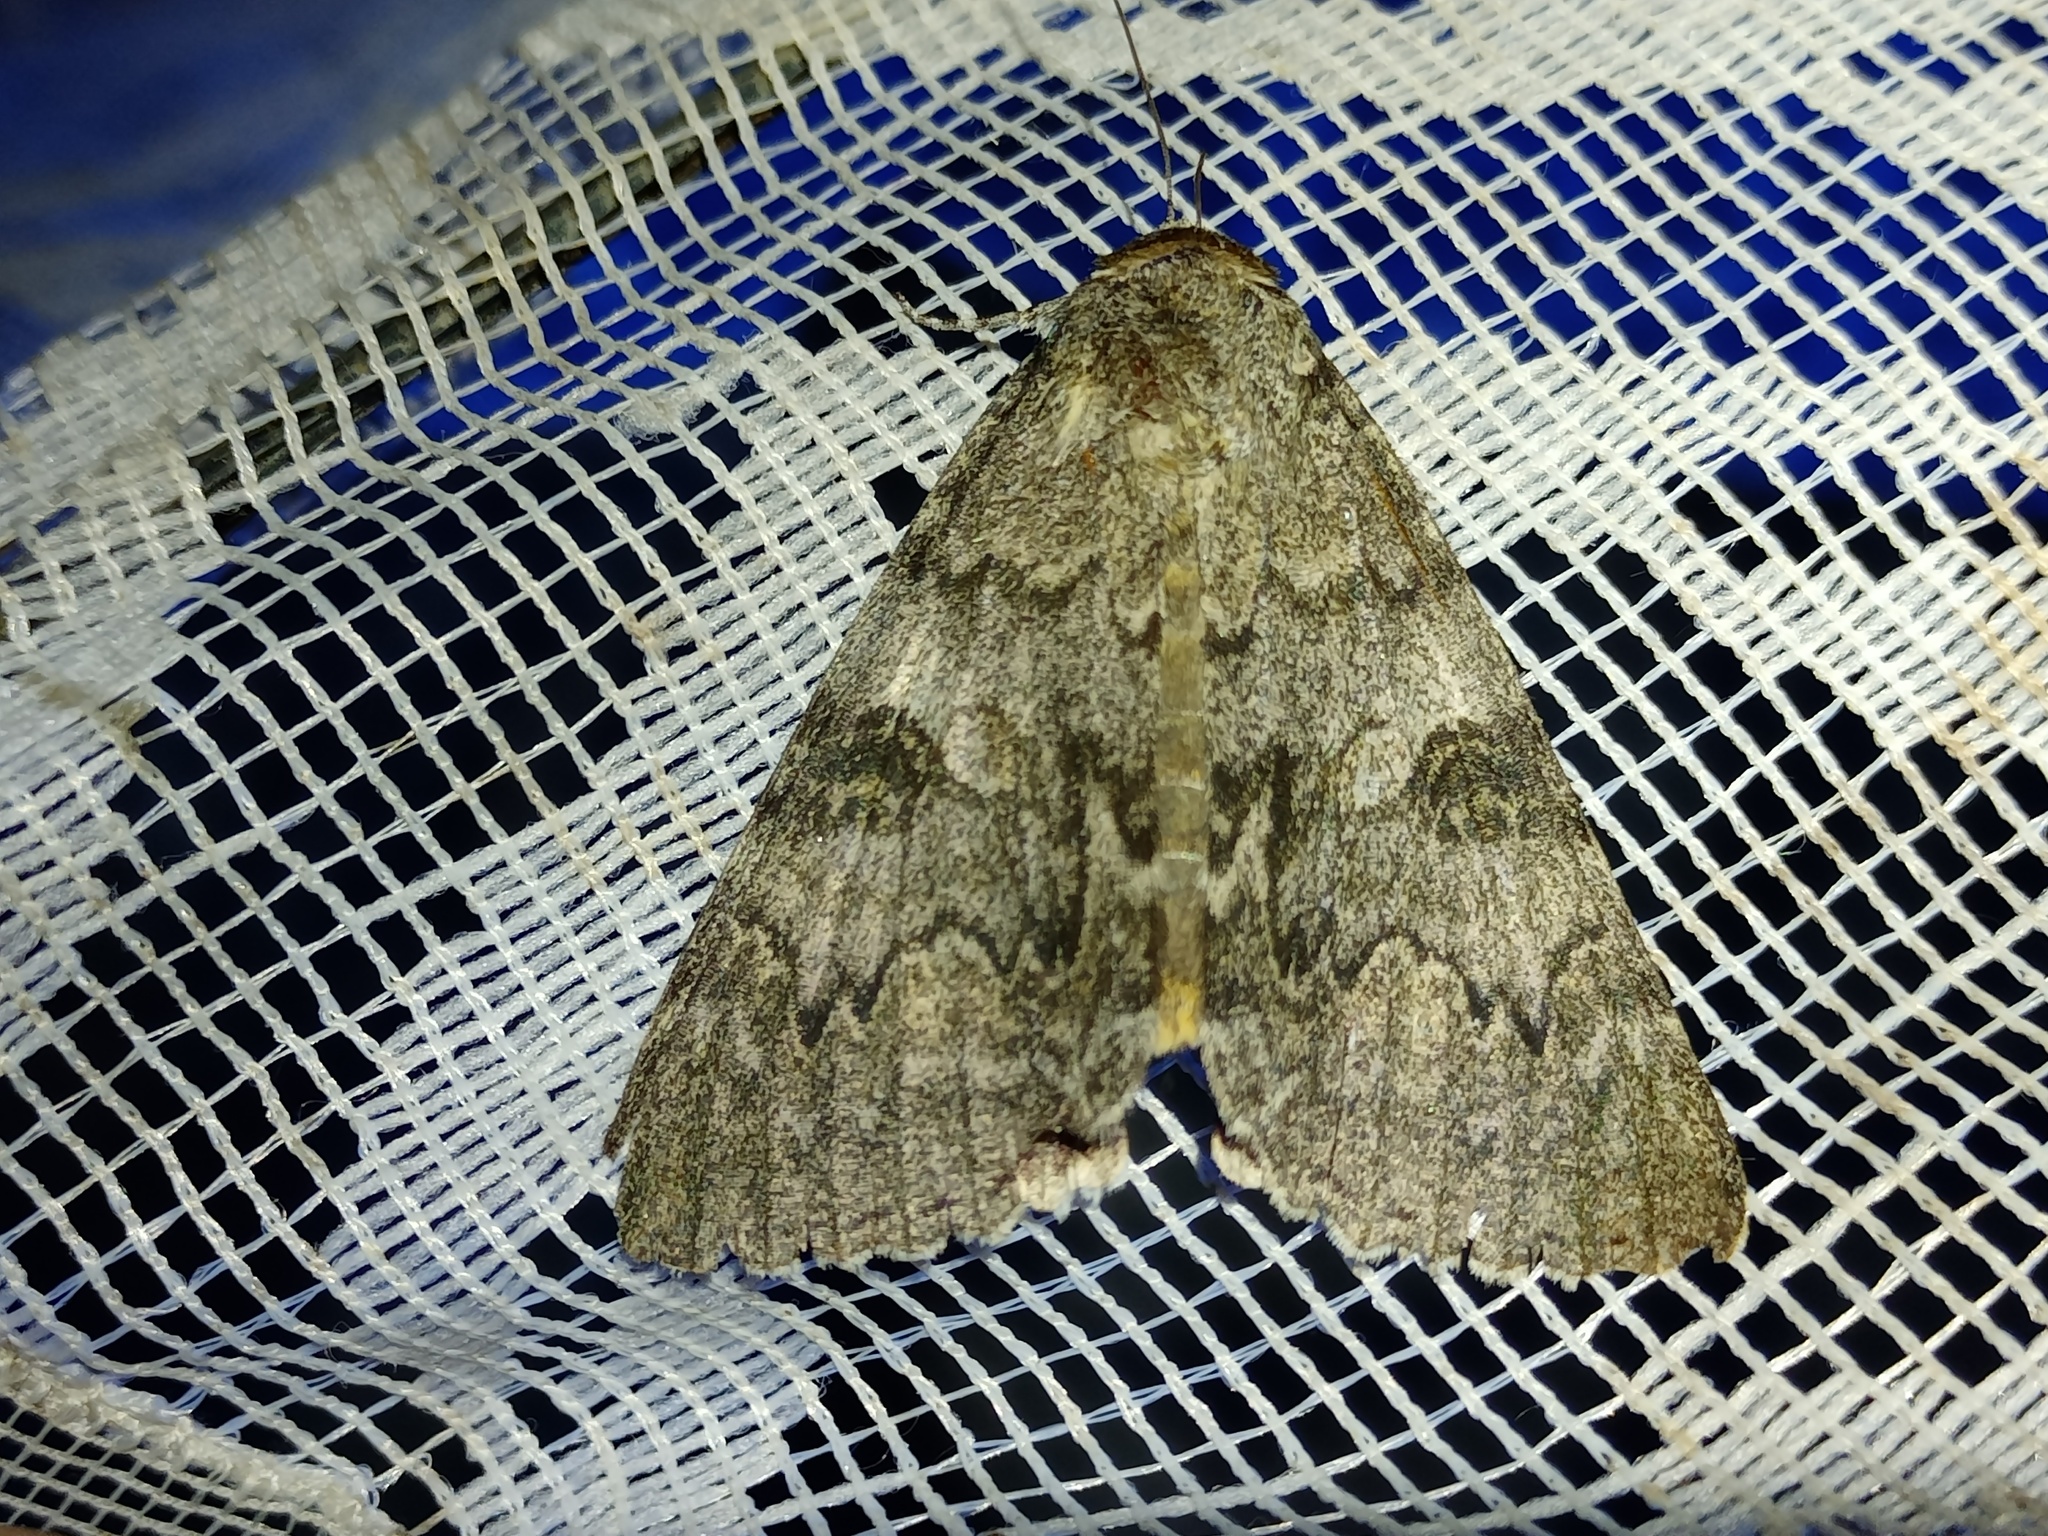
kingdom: Animalia
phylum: Arthropoda
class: Insecta
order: Lepidoptera
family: Erebidae
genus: Catocala
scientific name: Catocala nupta
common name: Red underwing
